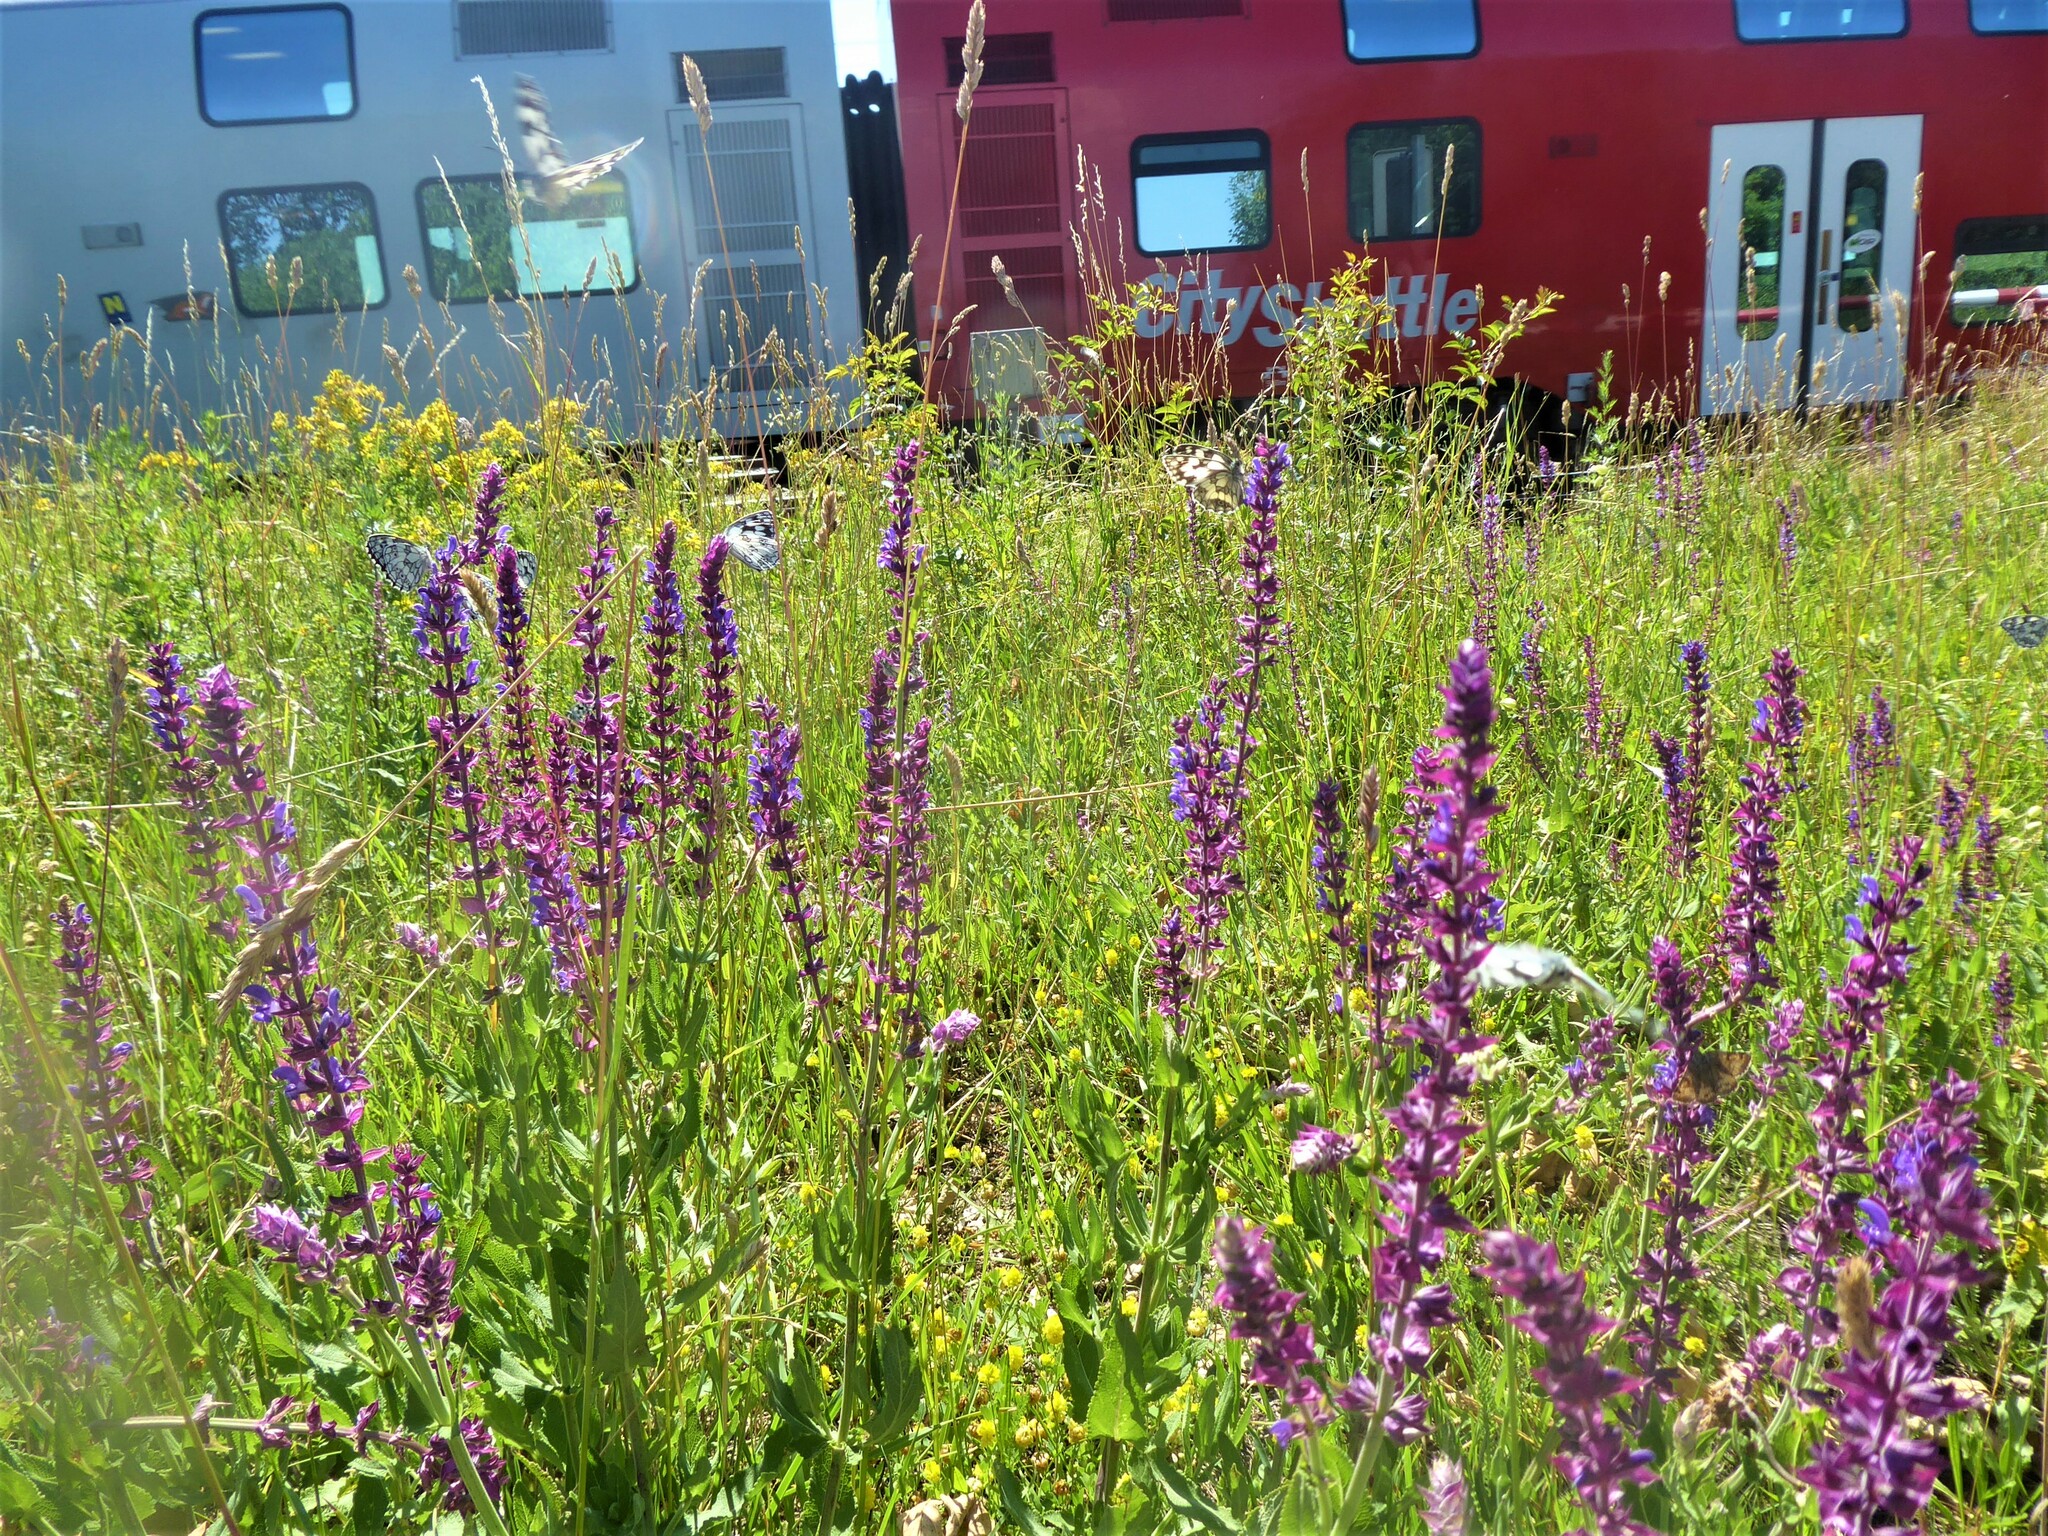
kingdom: Plantae
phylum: Tracheophyta
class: Magnoliopsida
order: Lamiales
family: Lamiaceae
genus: Salvia
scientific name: Salvia nemorosa
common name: Balkan clary
